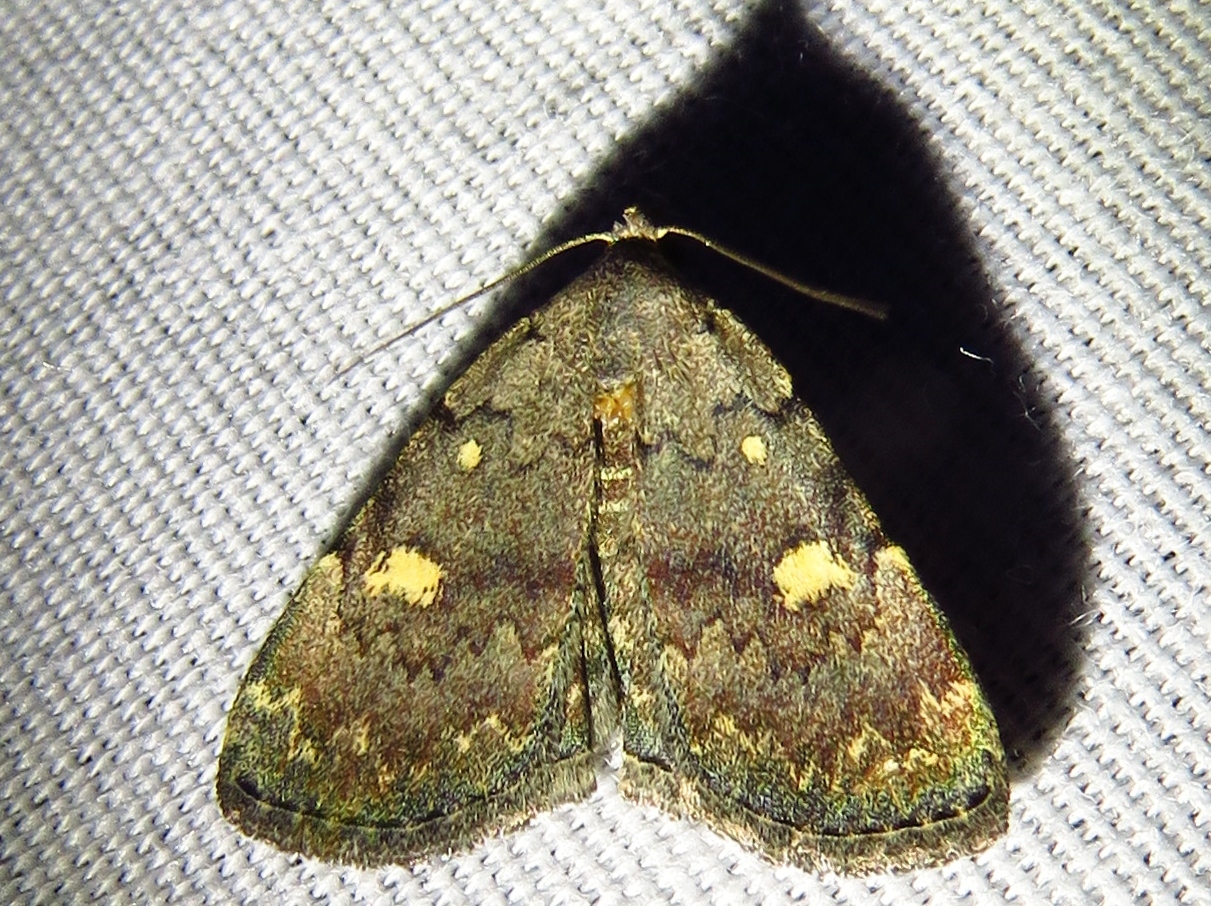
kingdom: Animalia
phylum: Arthropoda
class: Insecta
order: Lepidoptera
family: Erebidae
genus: Idia
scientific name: Idia aemula
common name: Common idia moth
